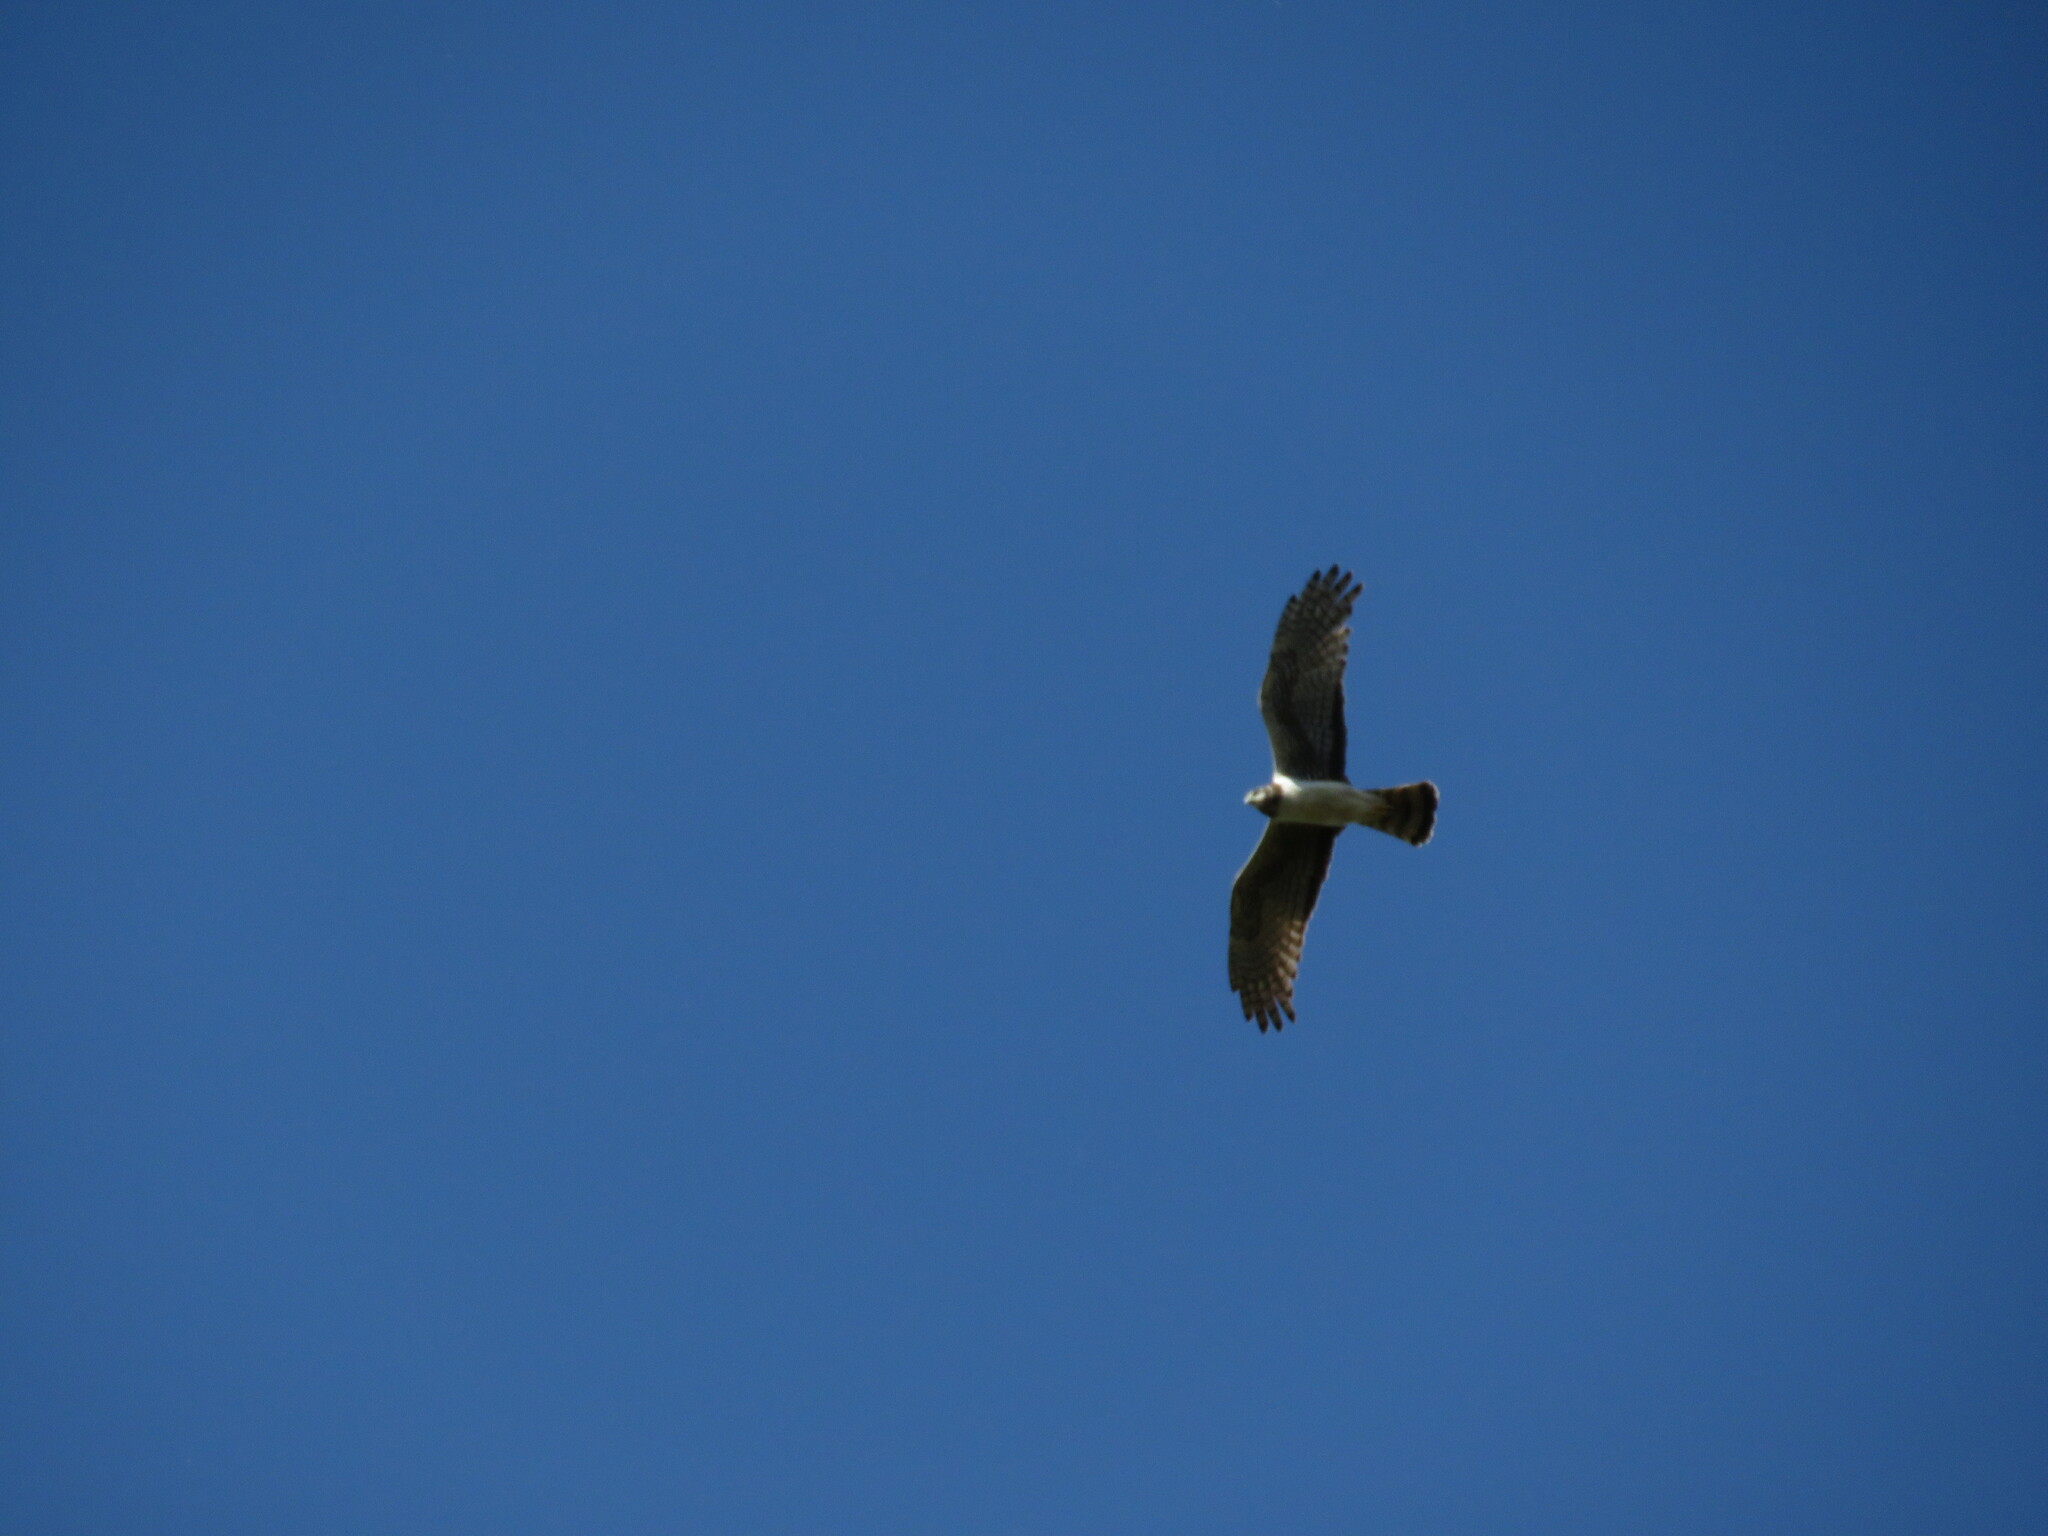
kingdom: Animalia
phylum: Chordata
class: Aves
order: Accipitriformes
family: Accipitridae
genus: Circus
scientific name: Circus buffoni
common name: Long-winged harrier
